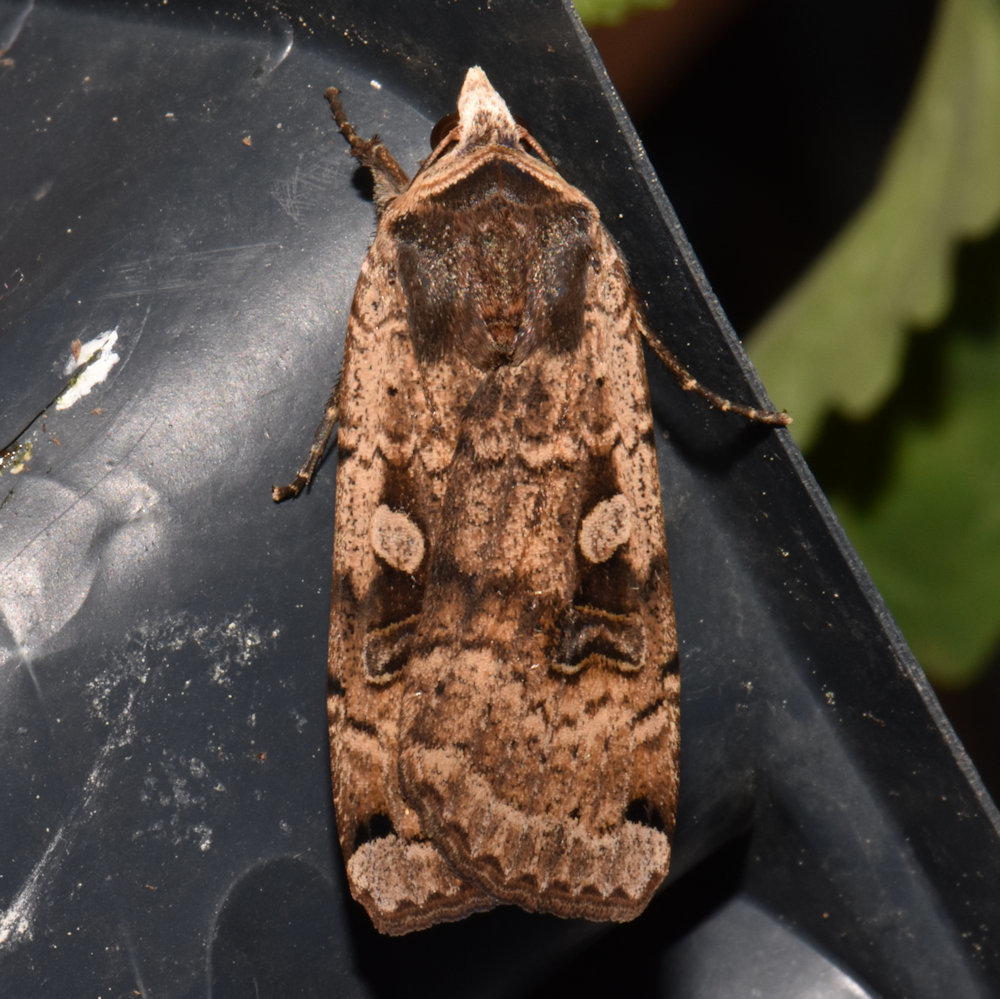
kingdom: Animalia
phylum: Arthropoda
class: Insecta
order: Lepidoptera
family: Noctuidae
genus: Noctua
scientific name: Noctua pronuba
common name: Large yellow underwing
